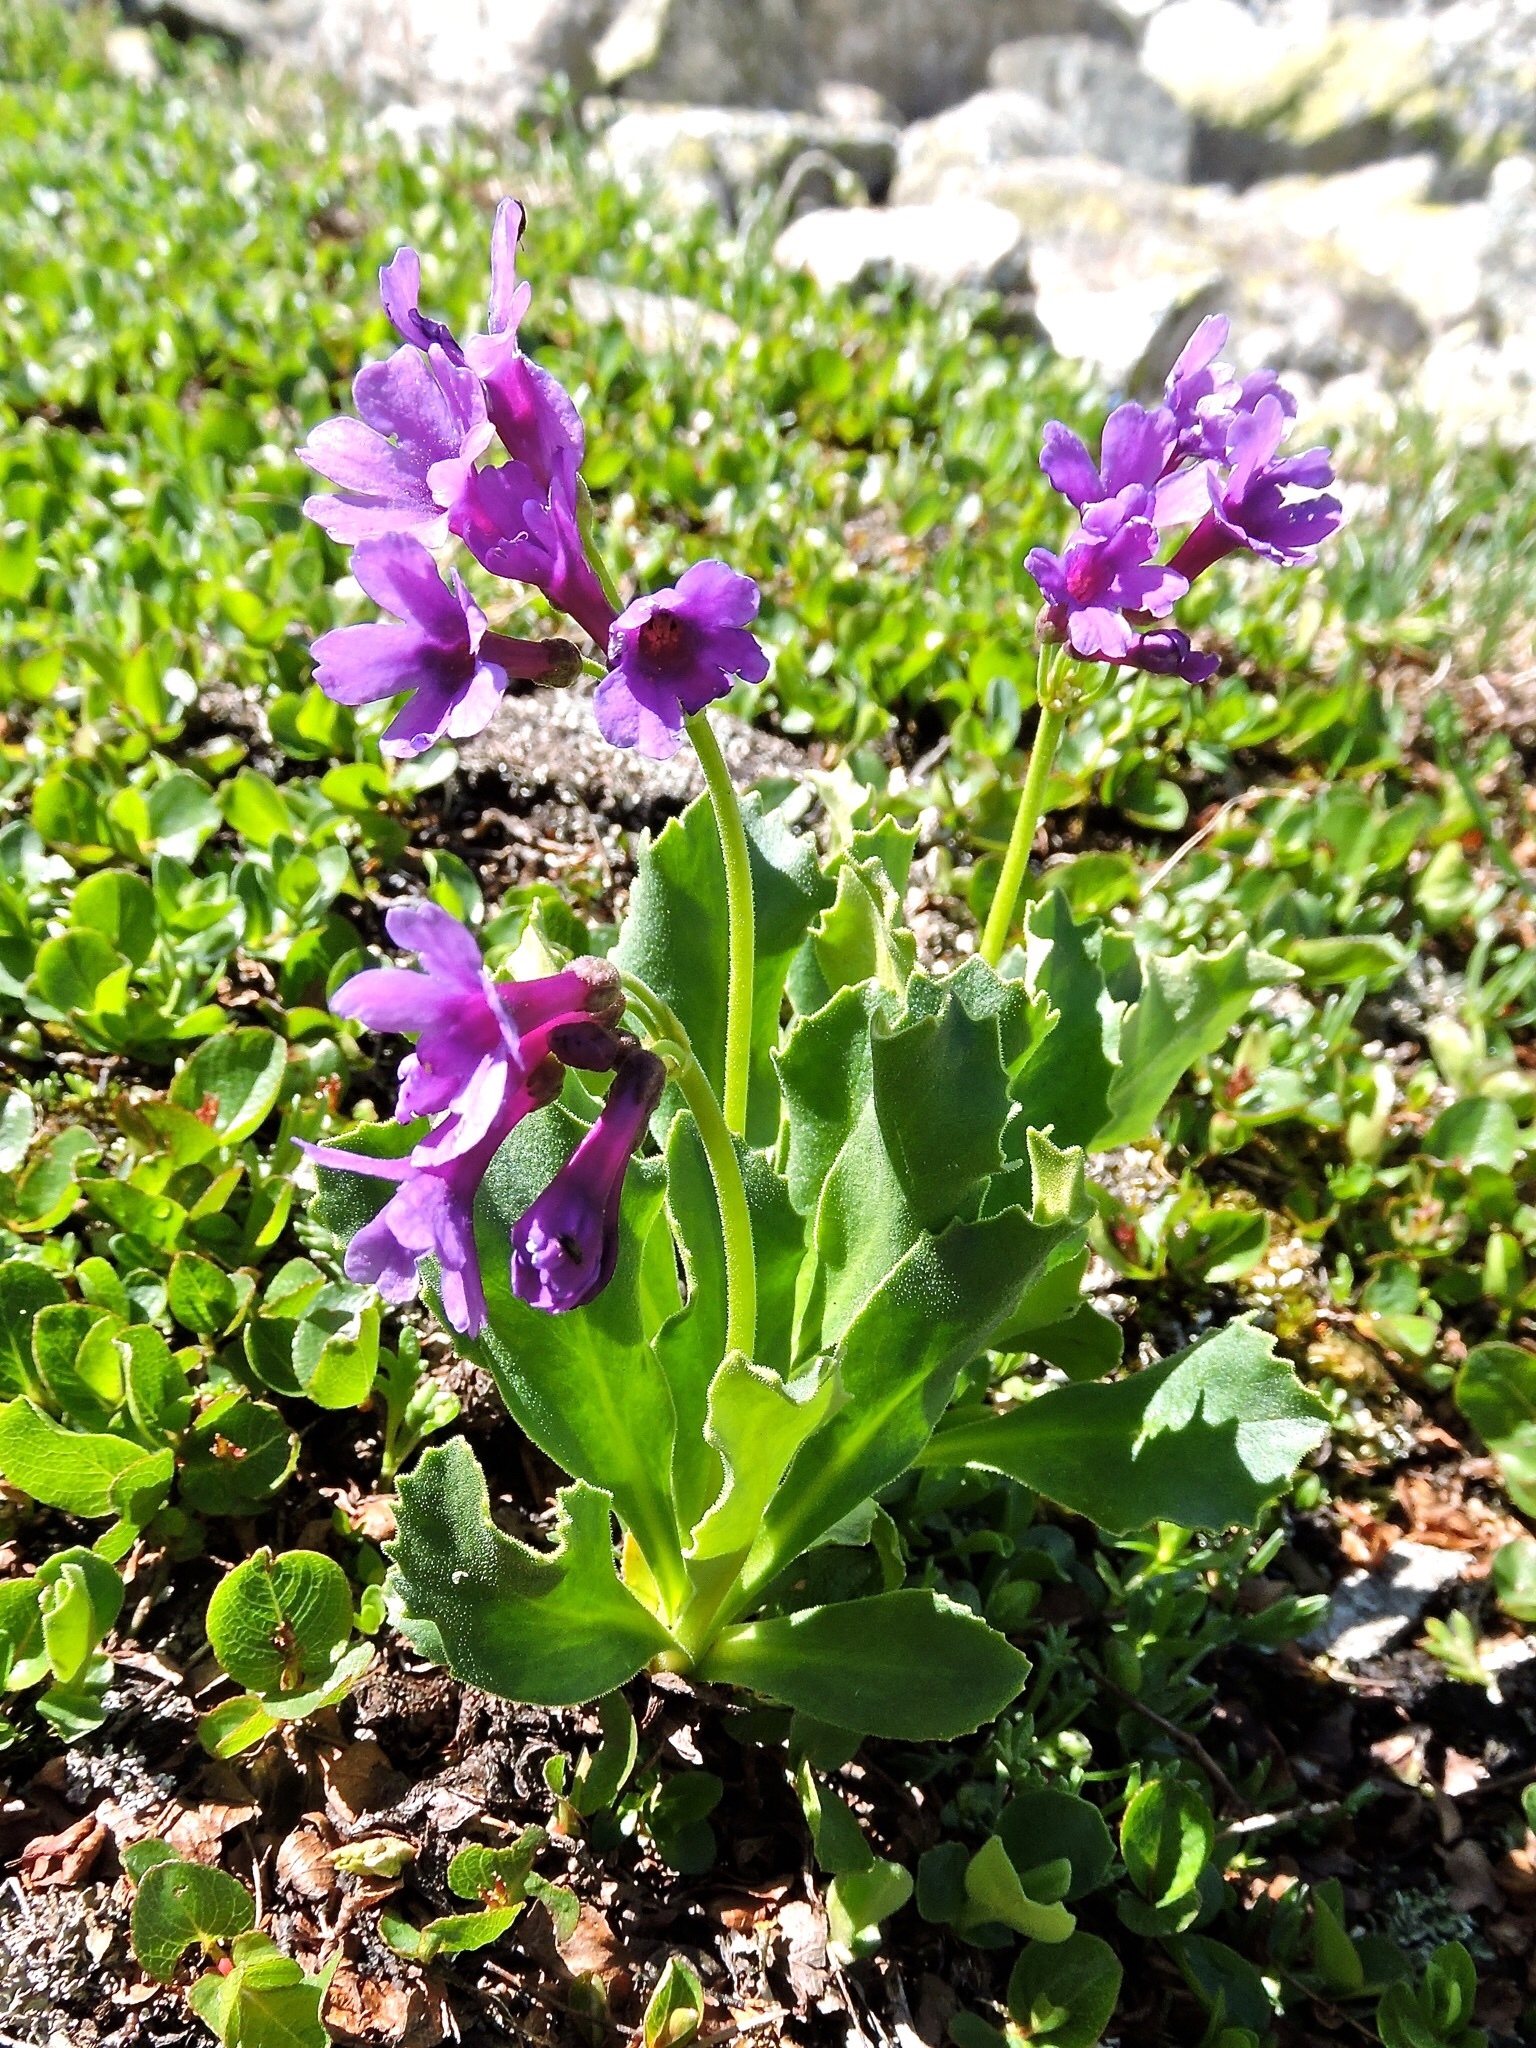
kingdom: Plantae
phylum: Tracheophyta
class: Magnoliopsida
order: Ericales
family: Primulaceae
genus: Primula
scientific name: Primula latifolia
